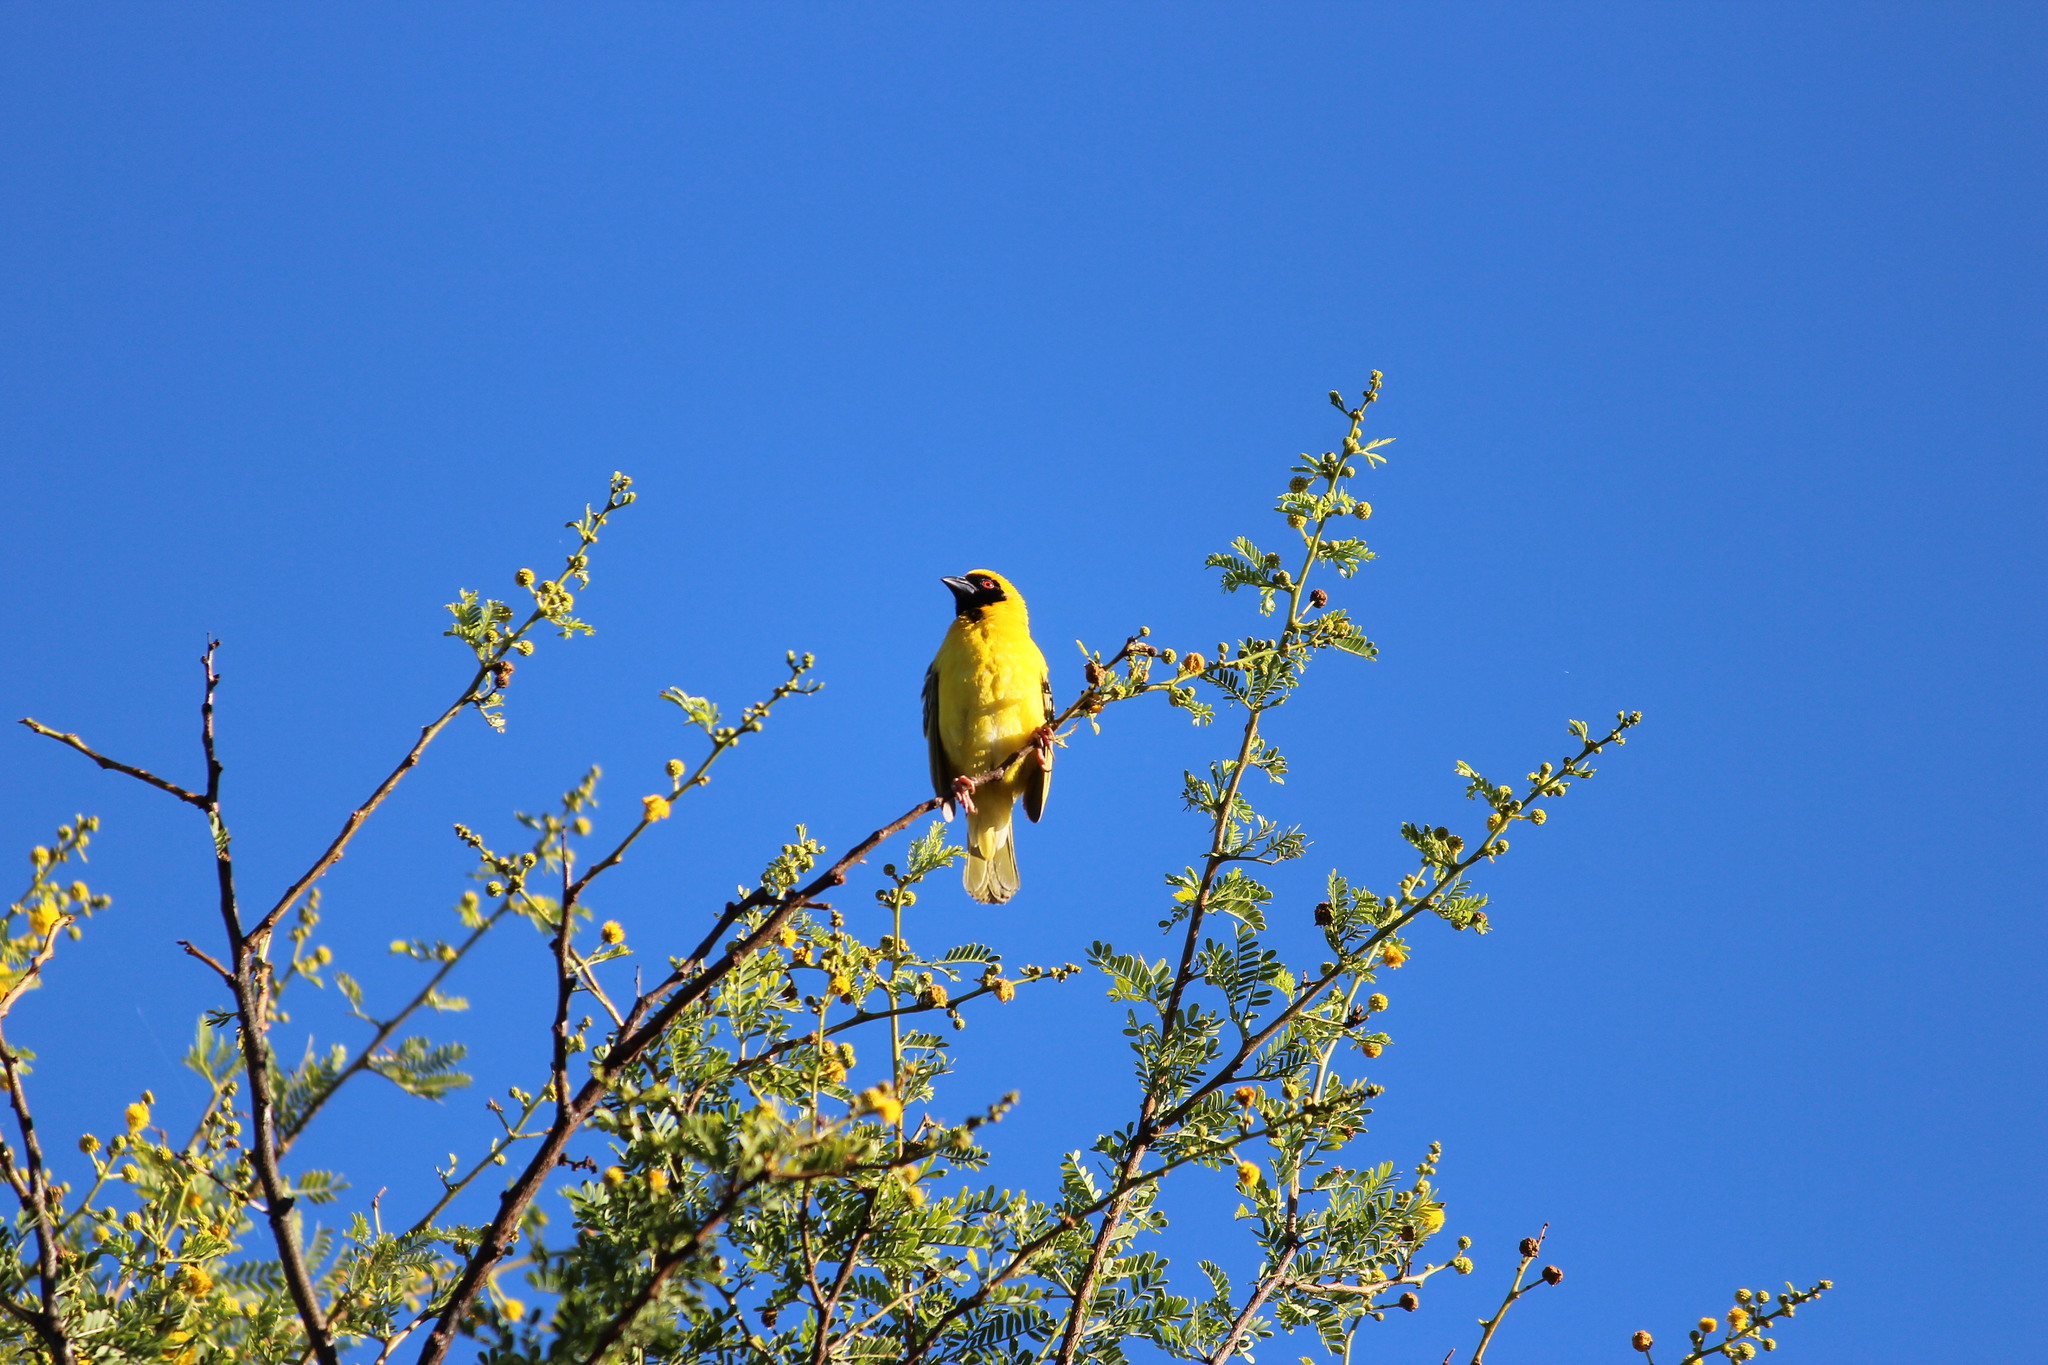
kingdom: Animalia
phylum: Chordata
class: Aves
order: Passeriformes
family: Ploceidae
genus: Ploceus
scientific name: Ploceus velatus
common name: Southern masked weaver
